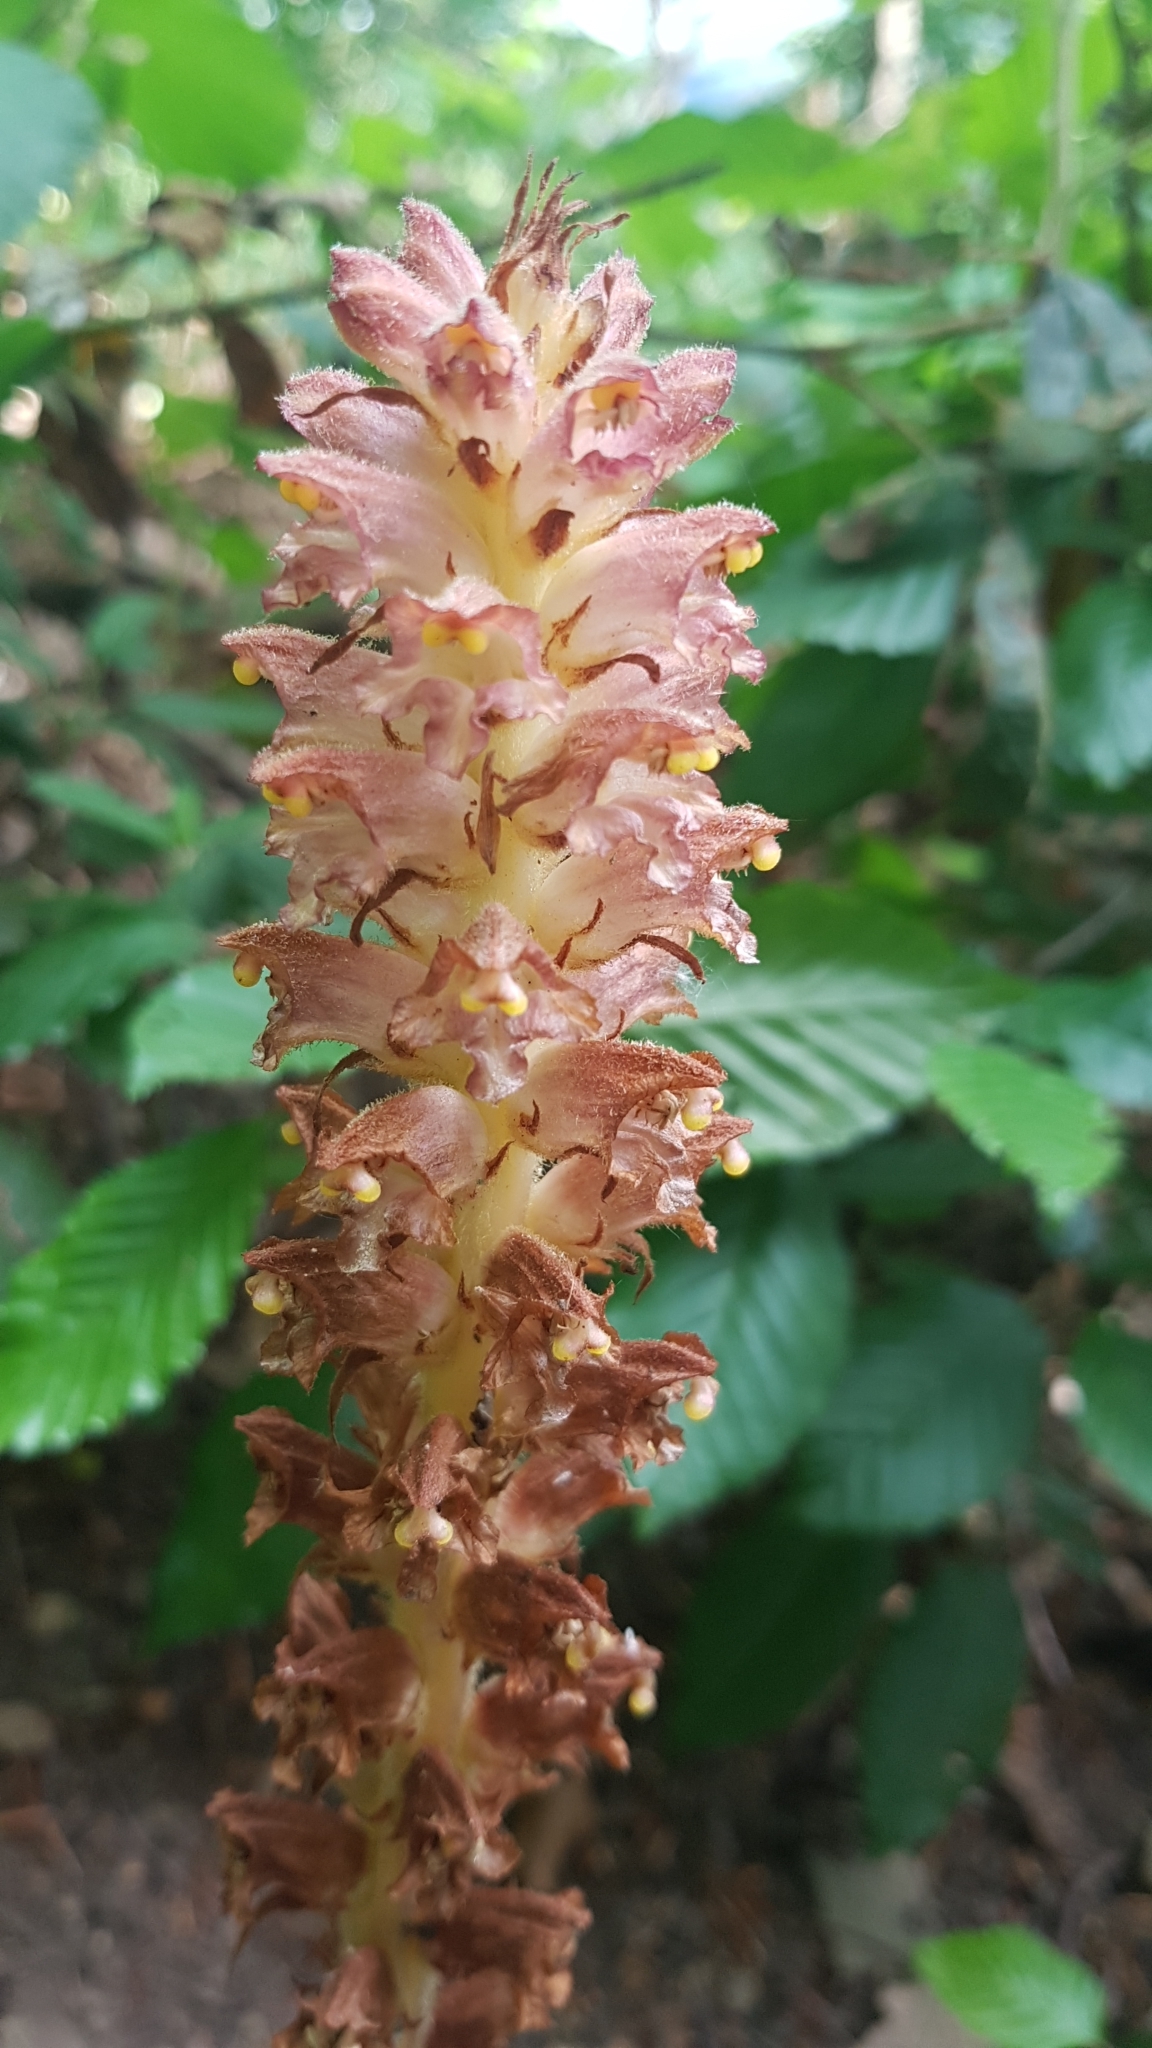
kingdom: Plantae
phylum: Tracheophyta
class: Magnoliopsida
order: Lamiales
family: Orobanchaceae
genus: Orobanche
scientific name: Orobanche rapum-genistae
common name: Greater broomrape
